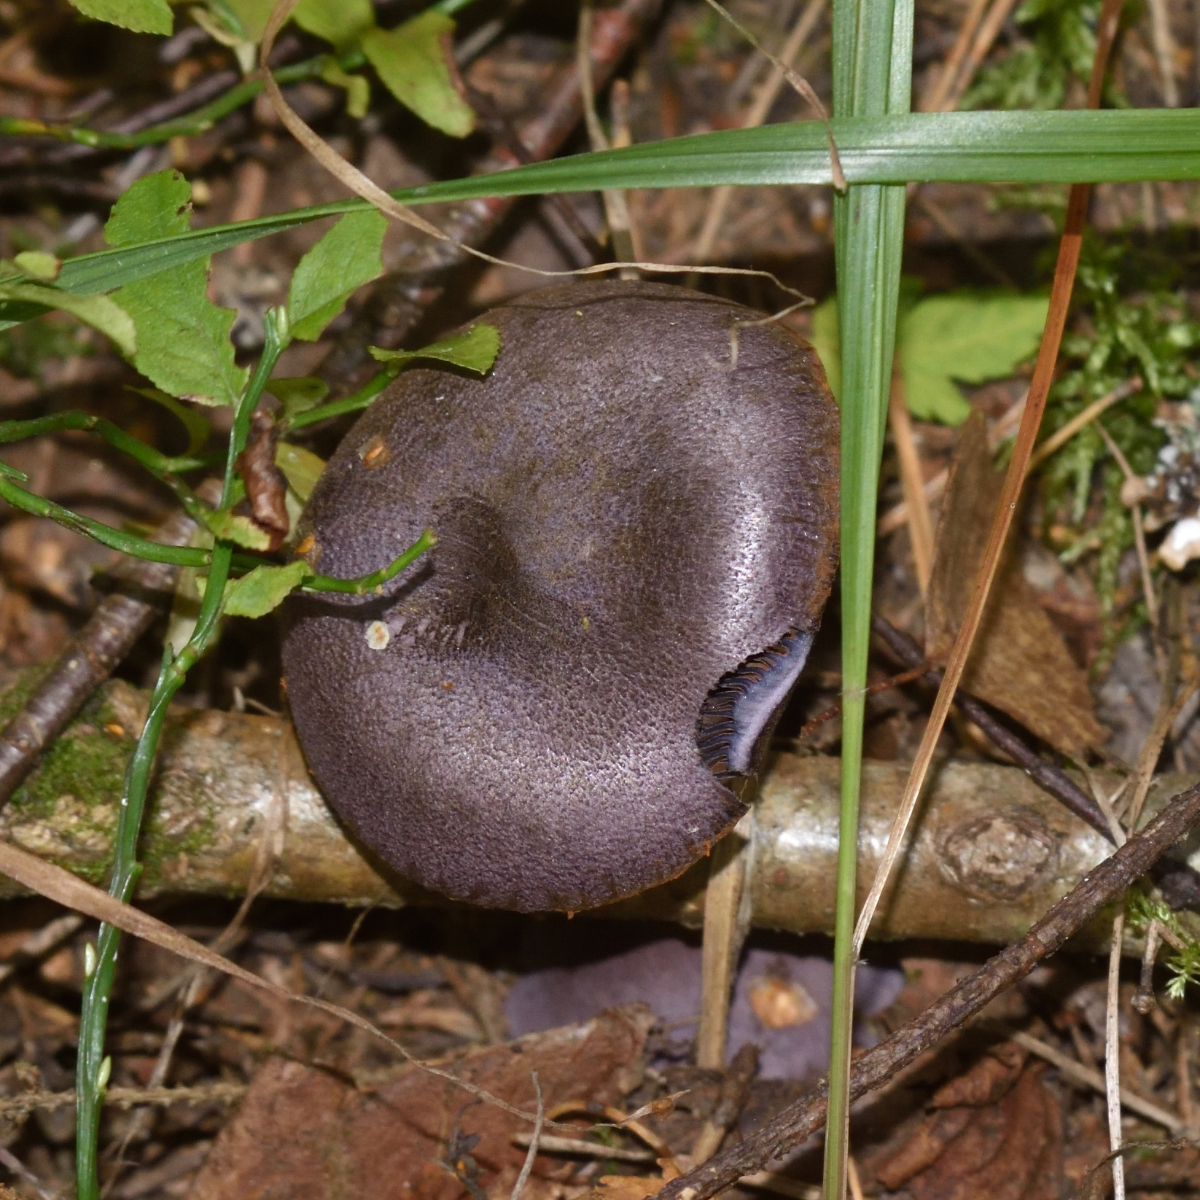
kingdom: Fungi
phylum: Basidiomycota
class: Agaricomycetes
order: Agaricales
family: Cortinariaceae
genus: Cortinarius
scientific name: Cortinarius violaceus
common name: Violet webcap
